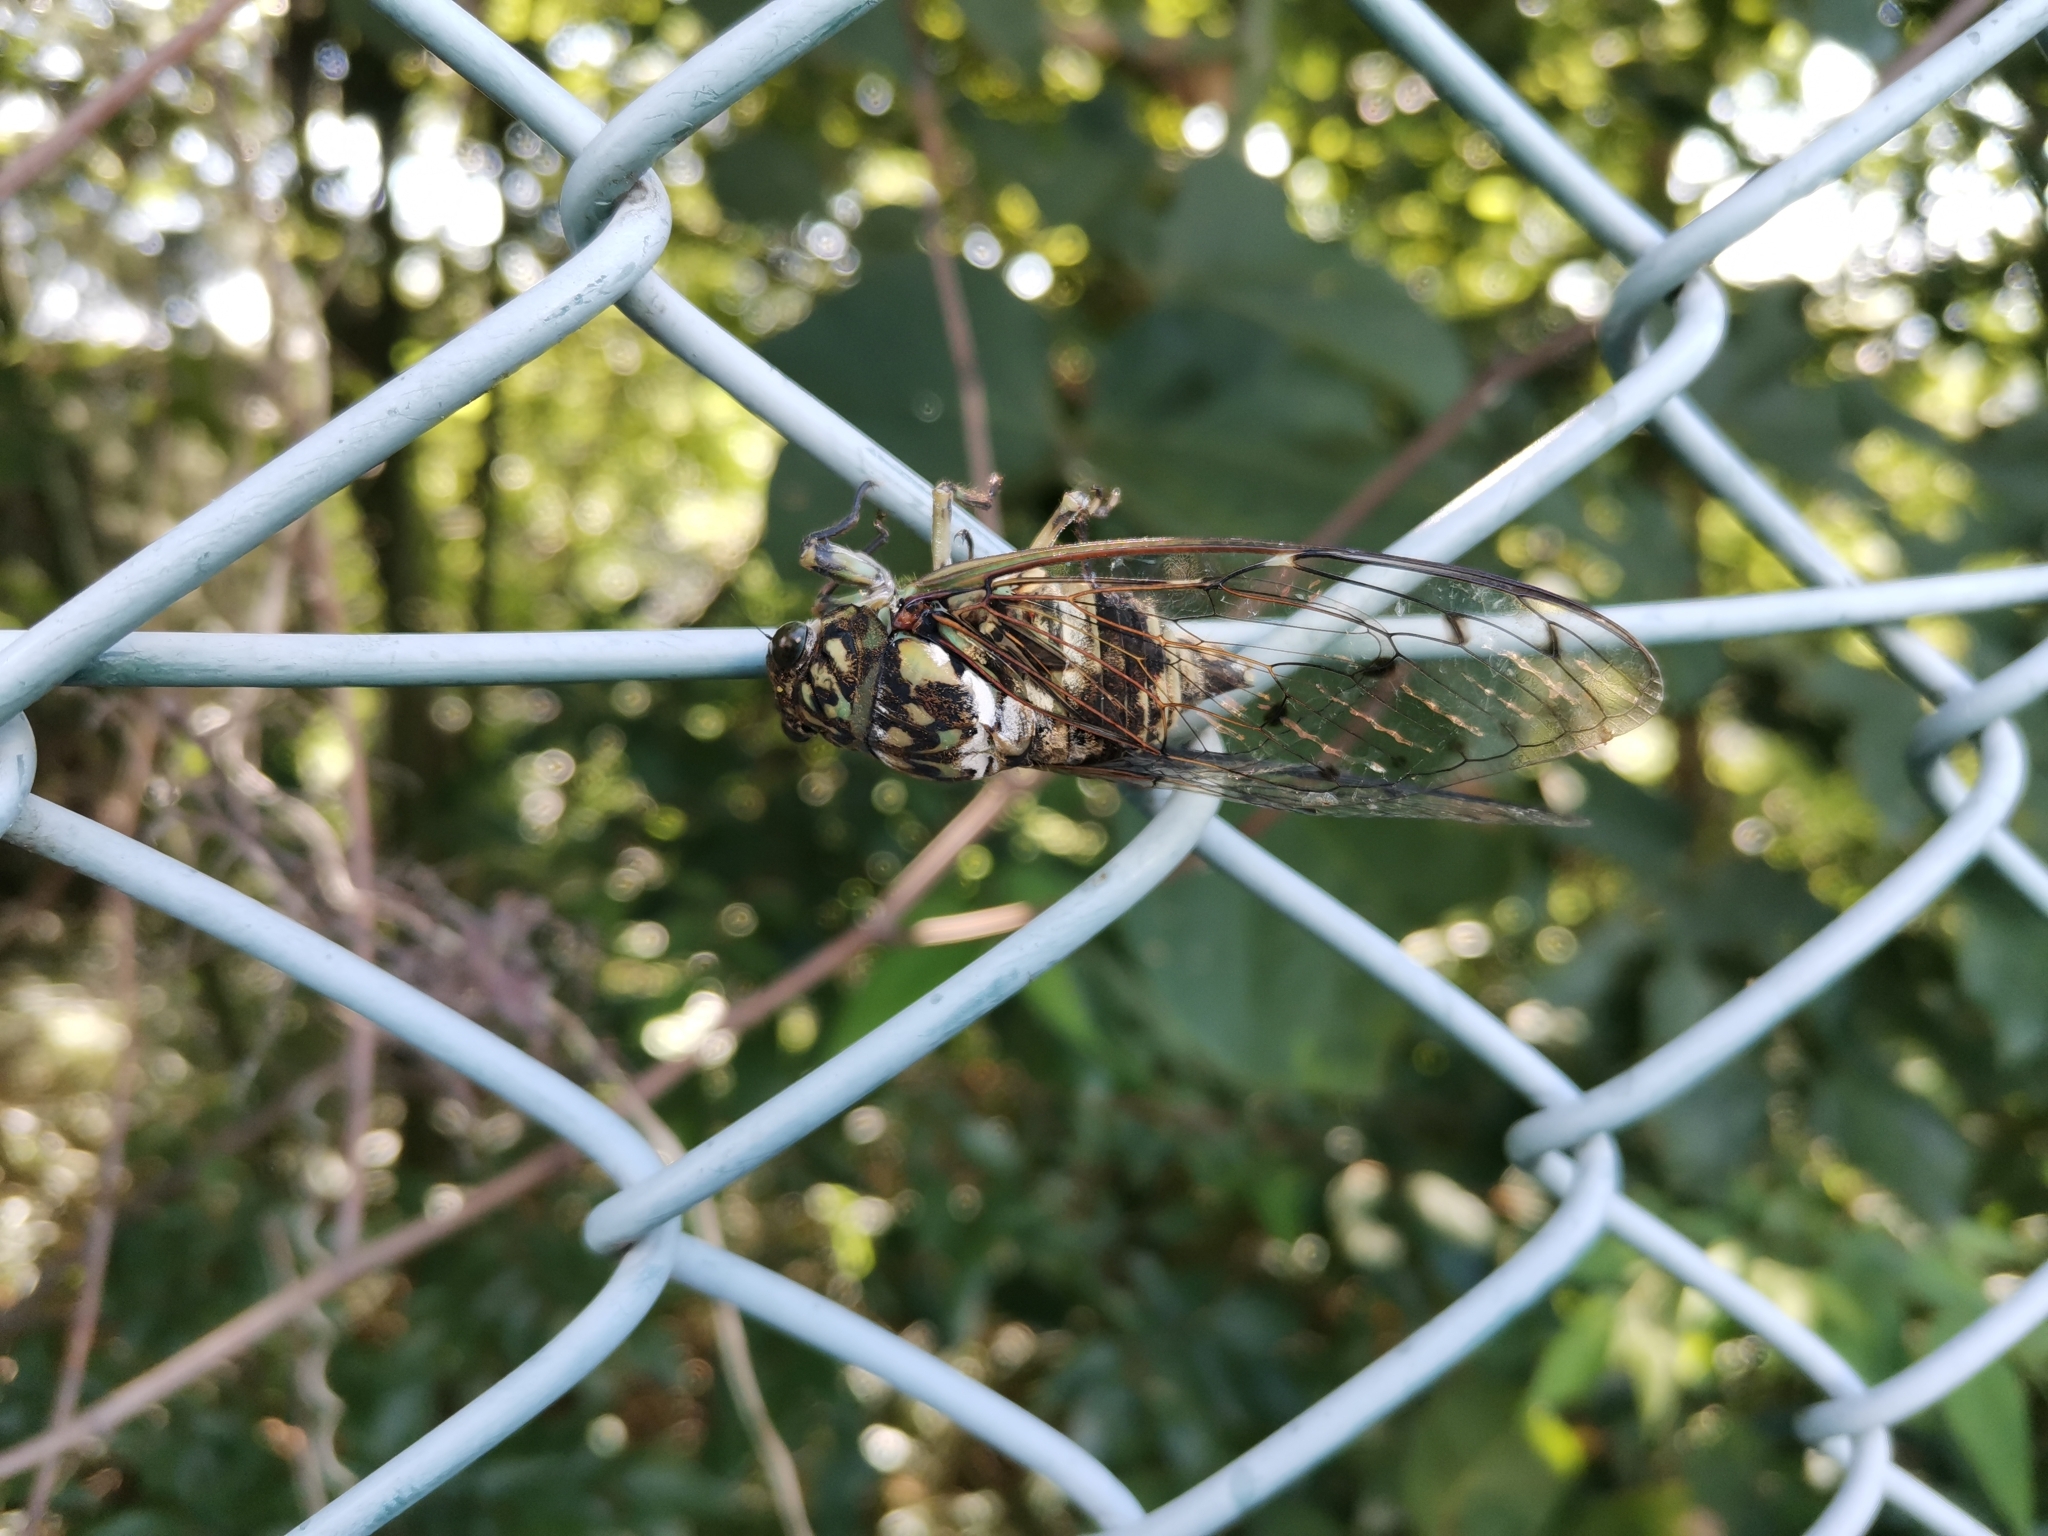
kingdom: Animalia
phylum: Arthropoda
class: Insecta
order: Hemiptera
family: Cicadidae
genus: Hyalessa
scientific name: Hyalessa maculaticollis
